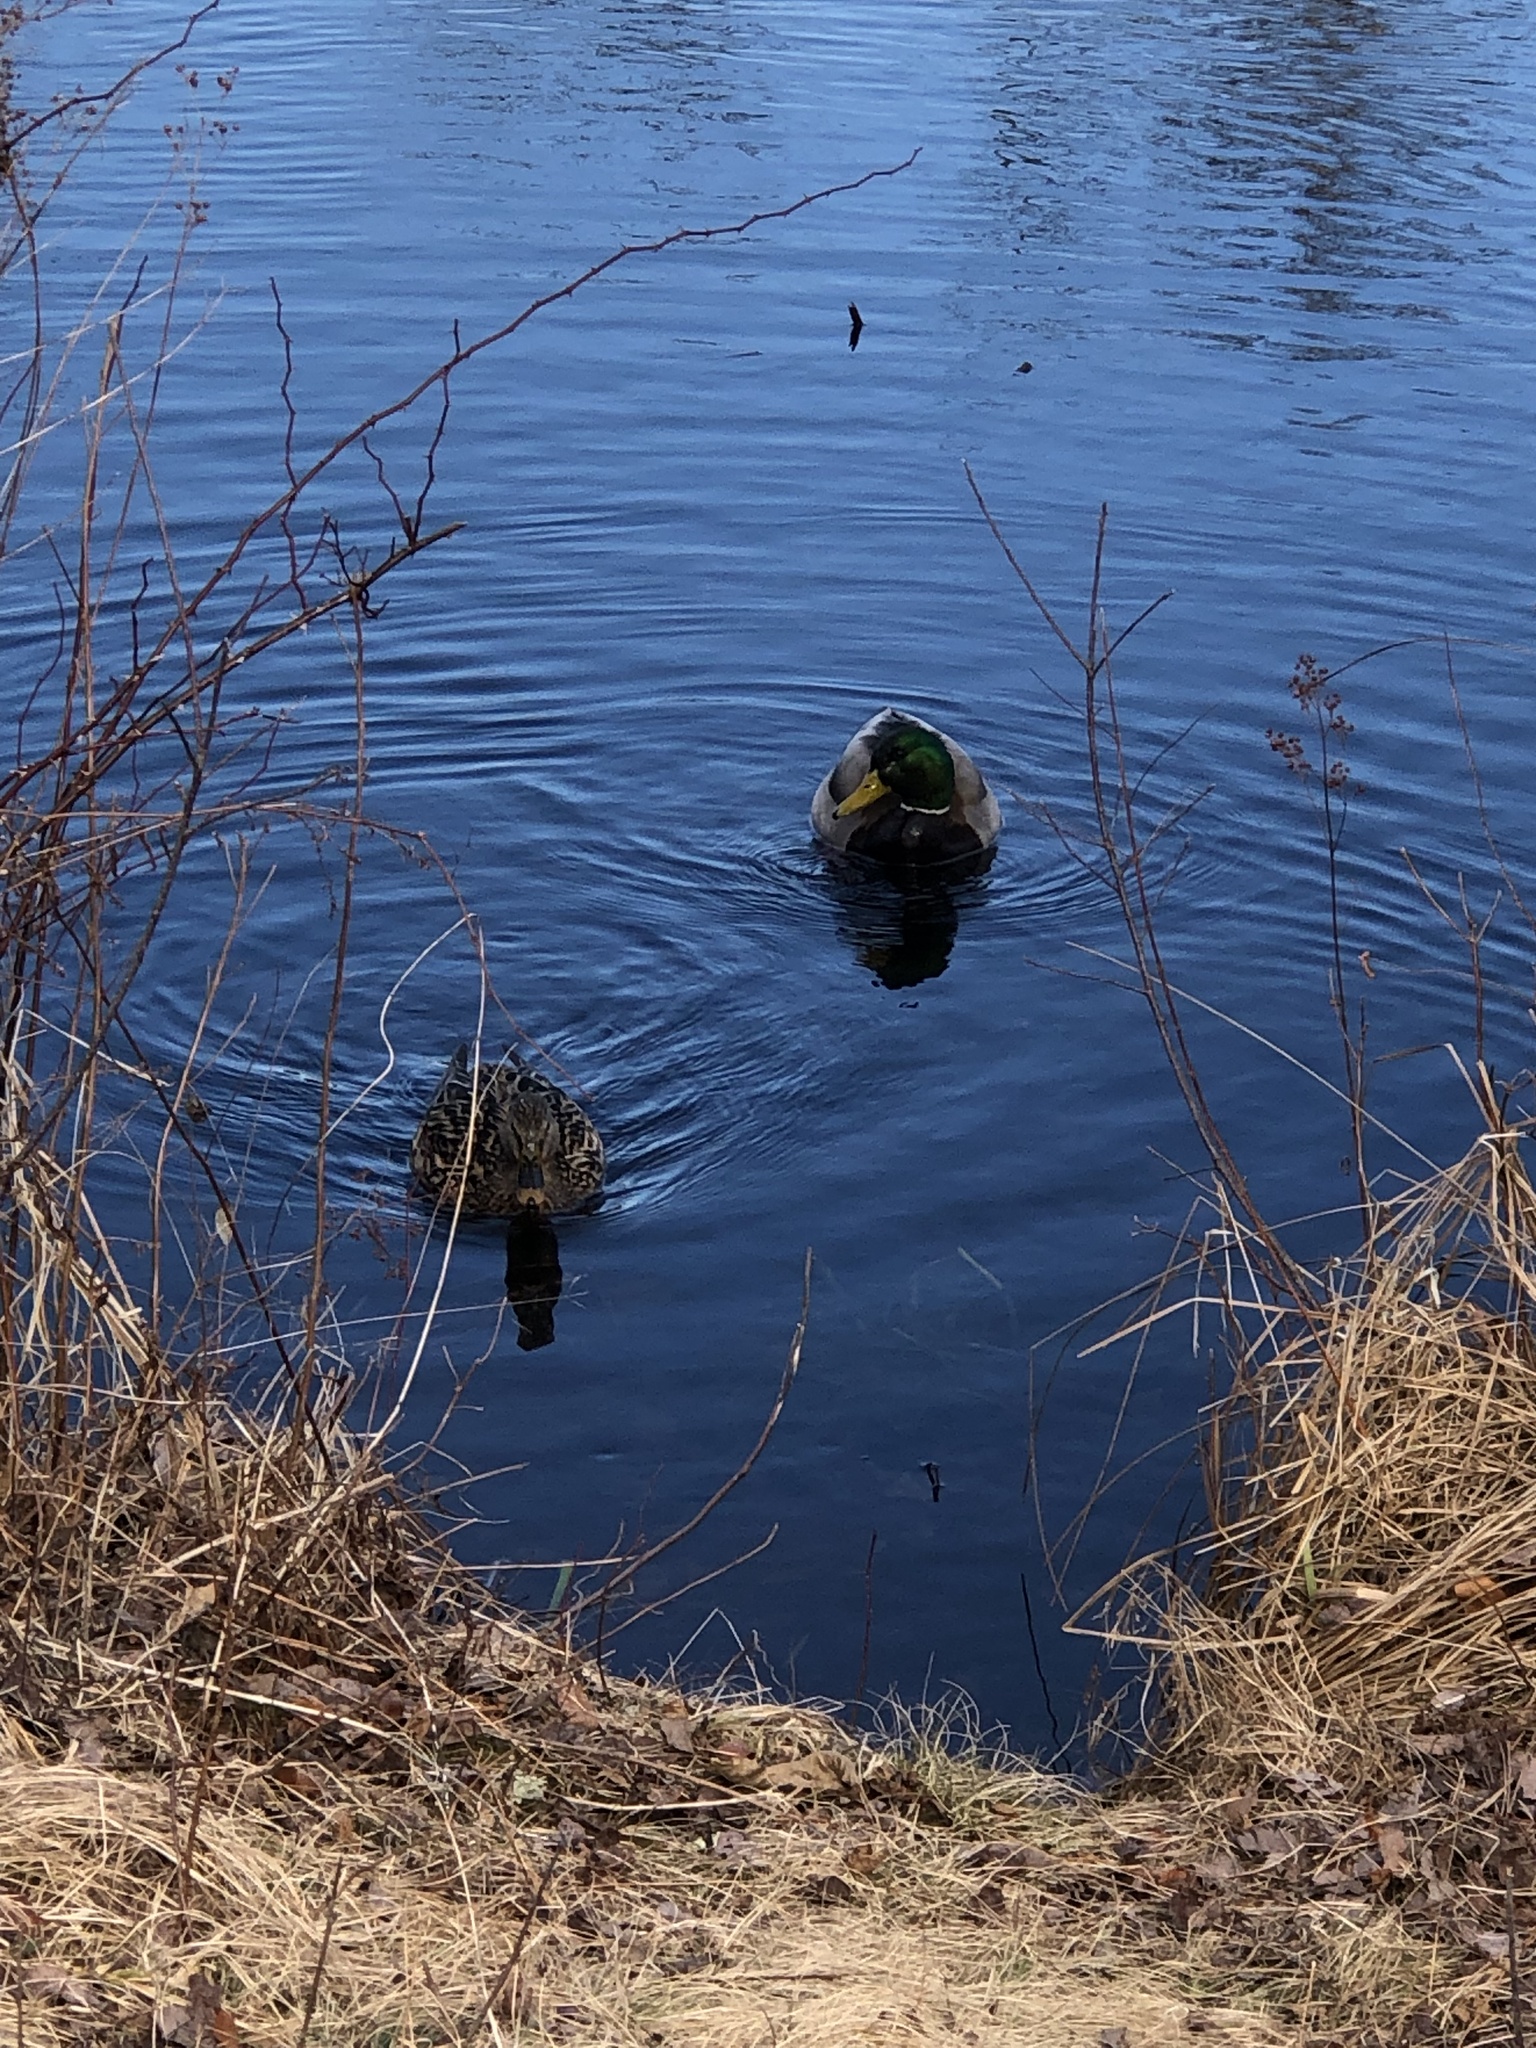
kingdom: Animalia
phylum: Chordata
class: Aves
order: Anseriformes
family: Anatidae
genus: Anas
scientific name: Anas platyrhynchos
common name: Mallard
